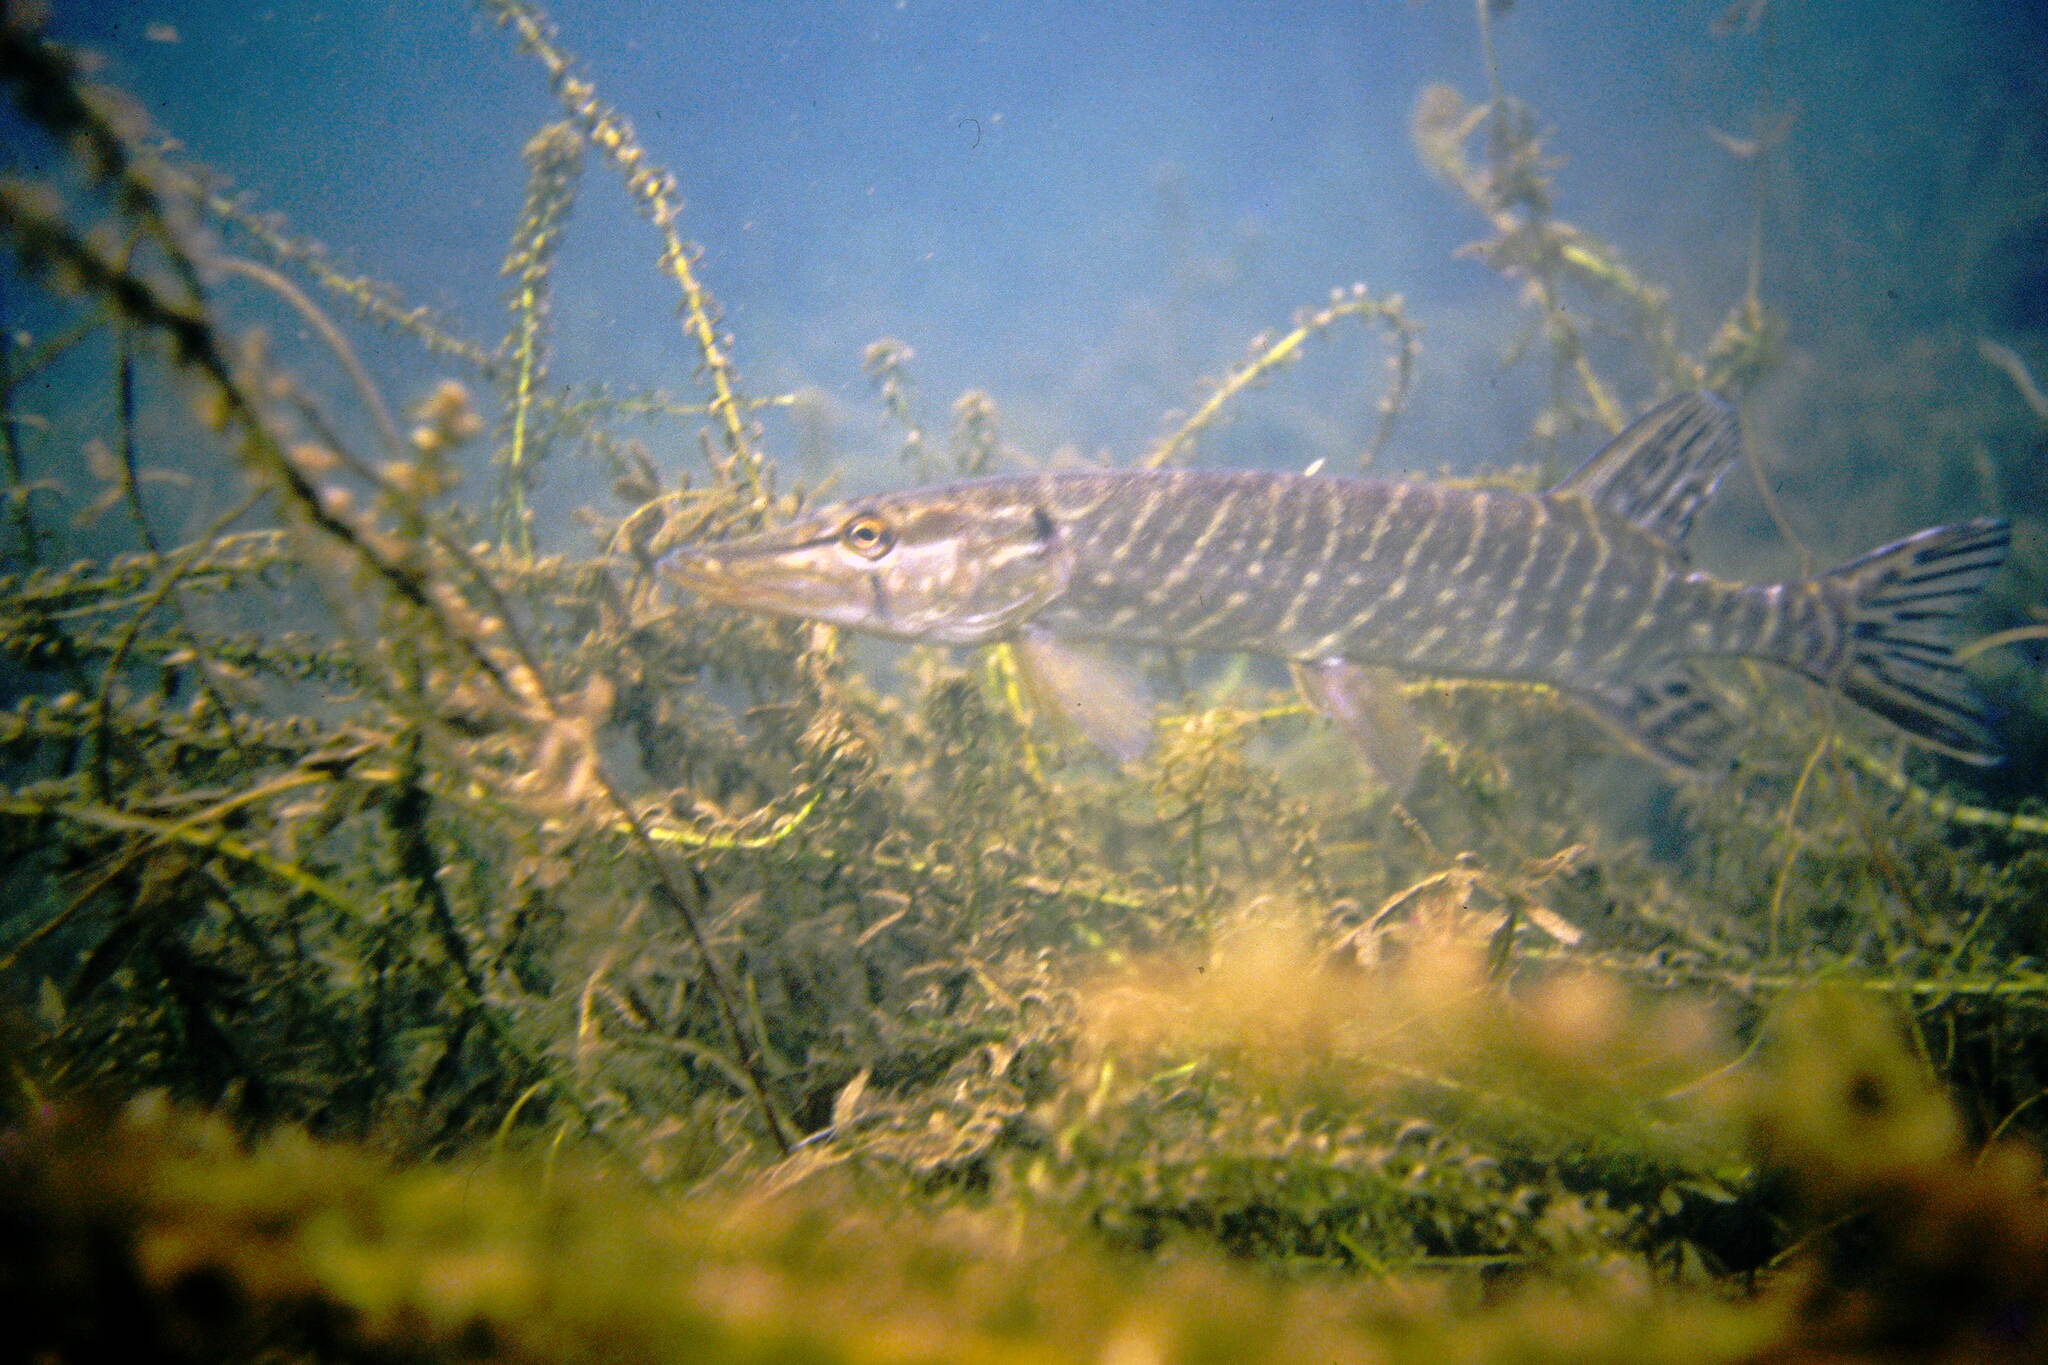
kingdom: Animalia
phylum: Chordata
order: Esociformes
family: Esocidae
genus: Esox
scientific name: Esox lucius
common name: Northern pike
